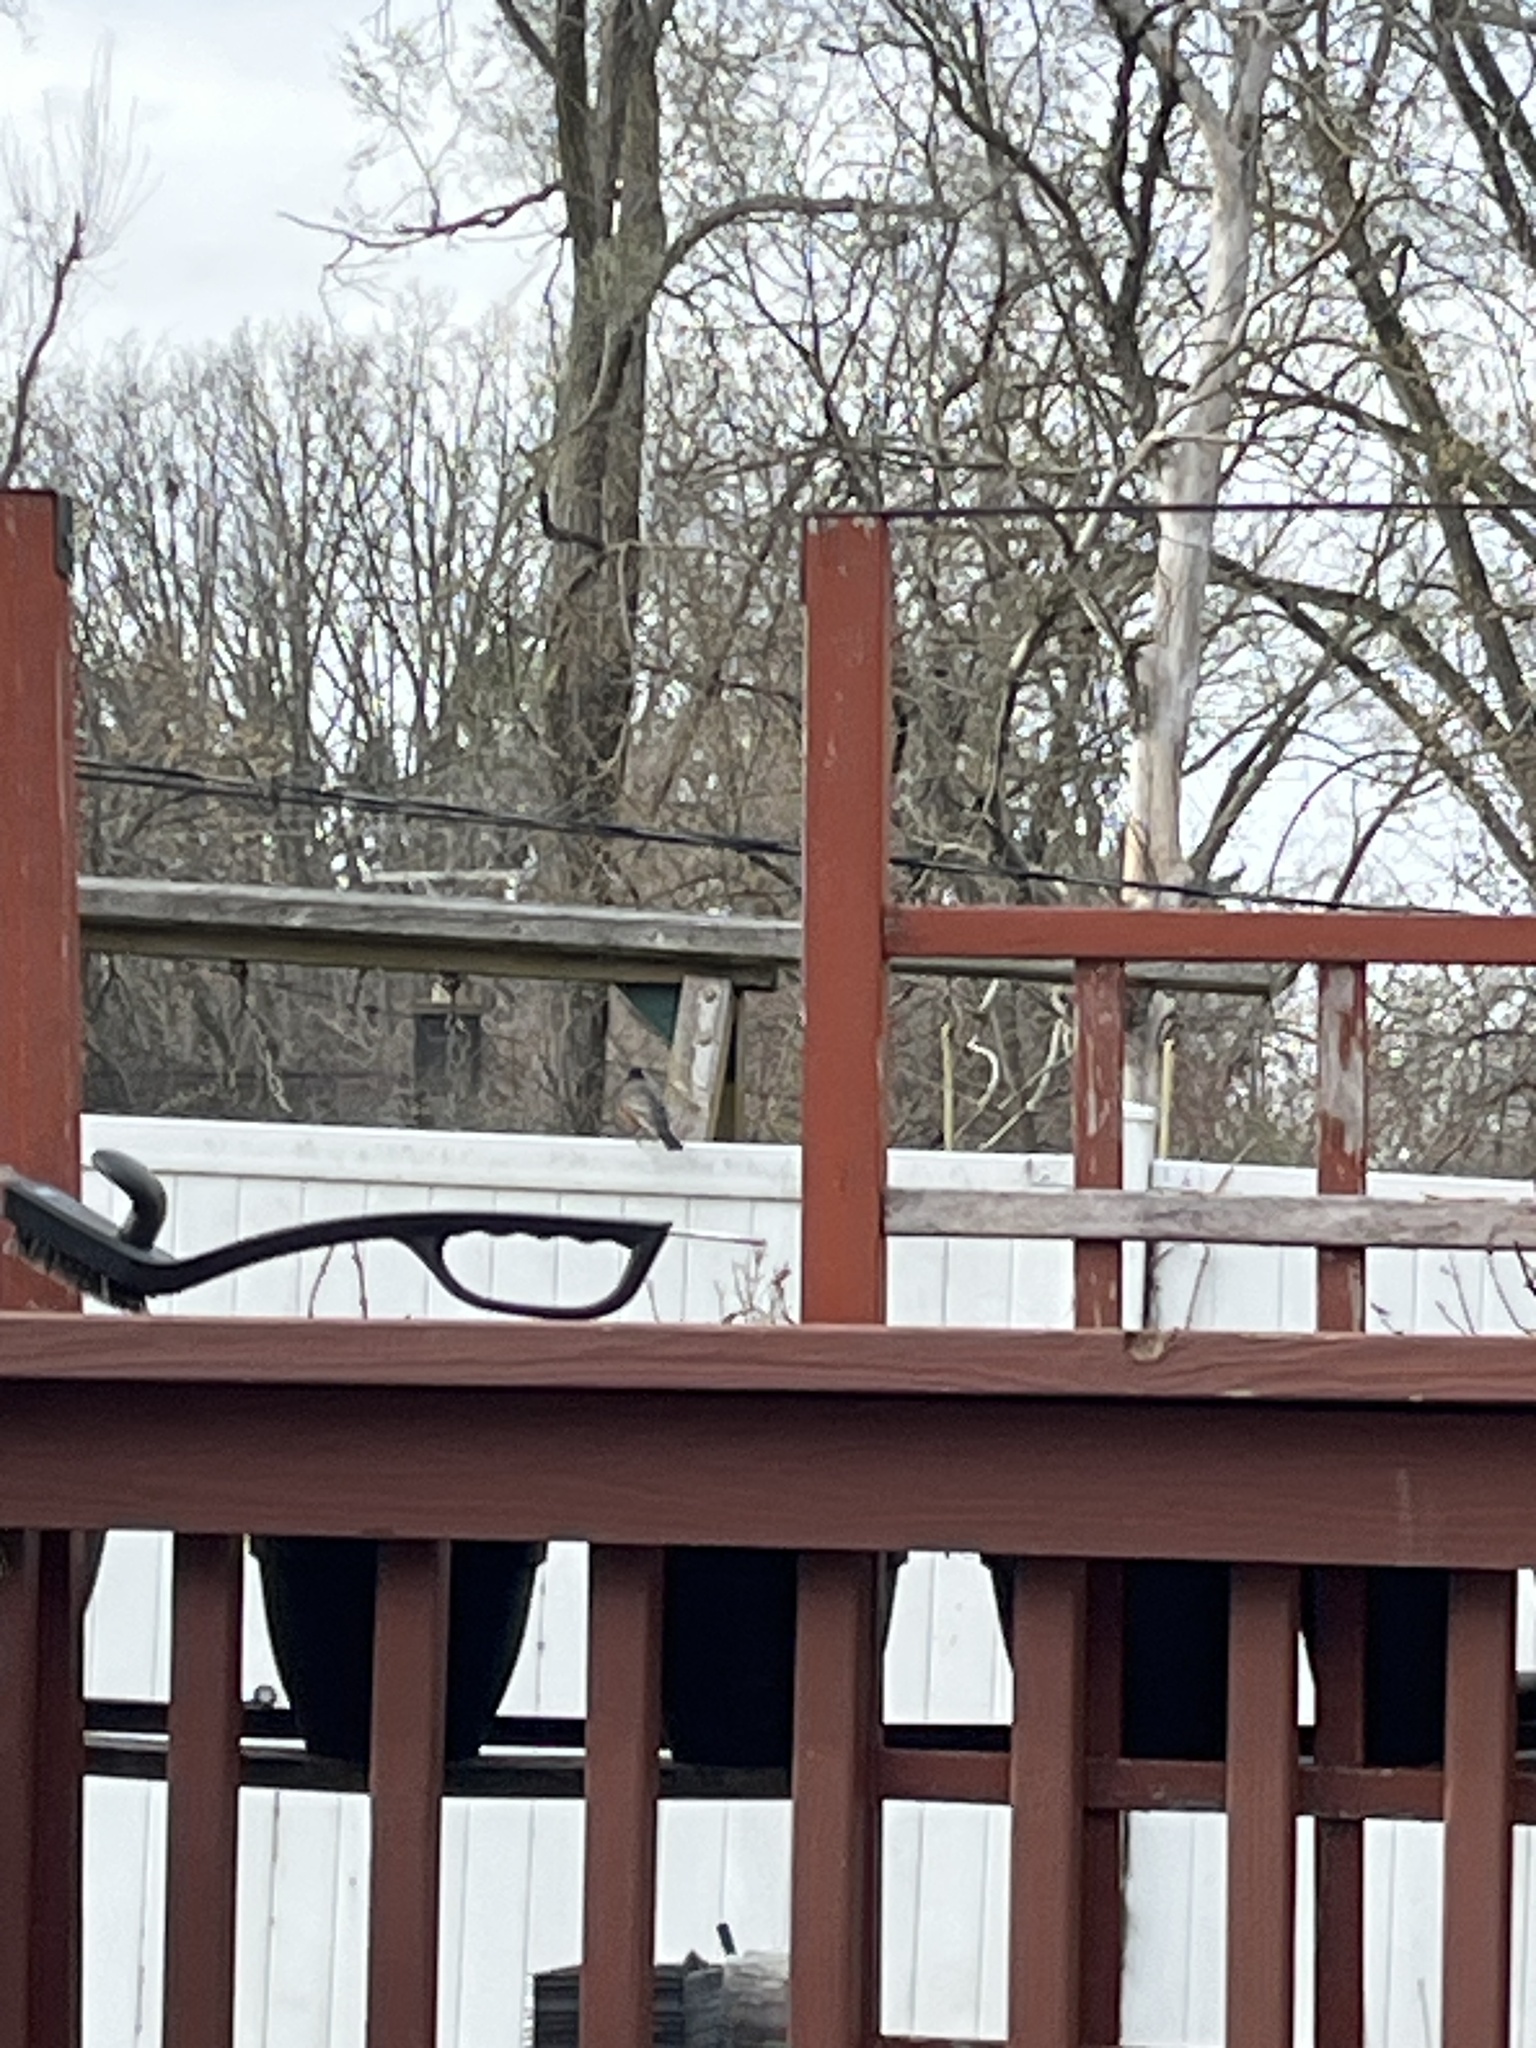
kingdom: Animalia
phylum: Chordata
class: Aves
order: Passeriformes
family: Turdidae
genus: Turdus
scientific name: Turdus migratorius
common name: American robin
